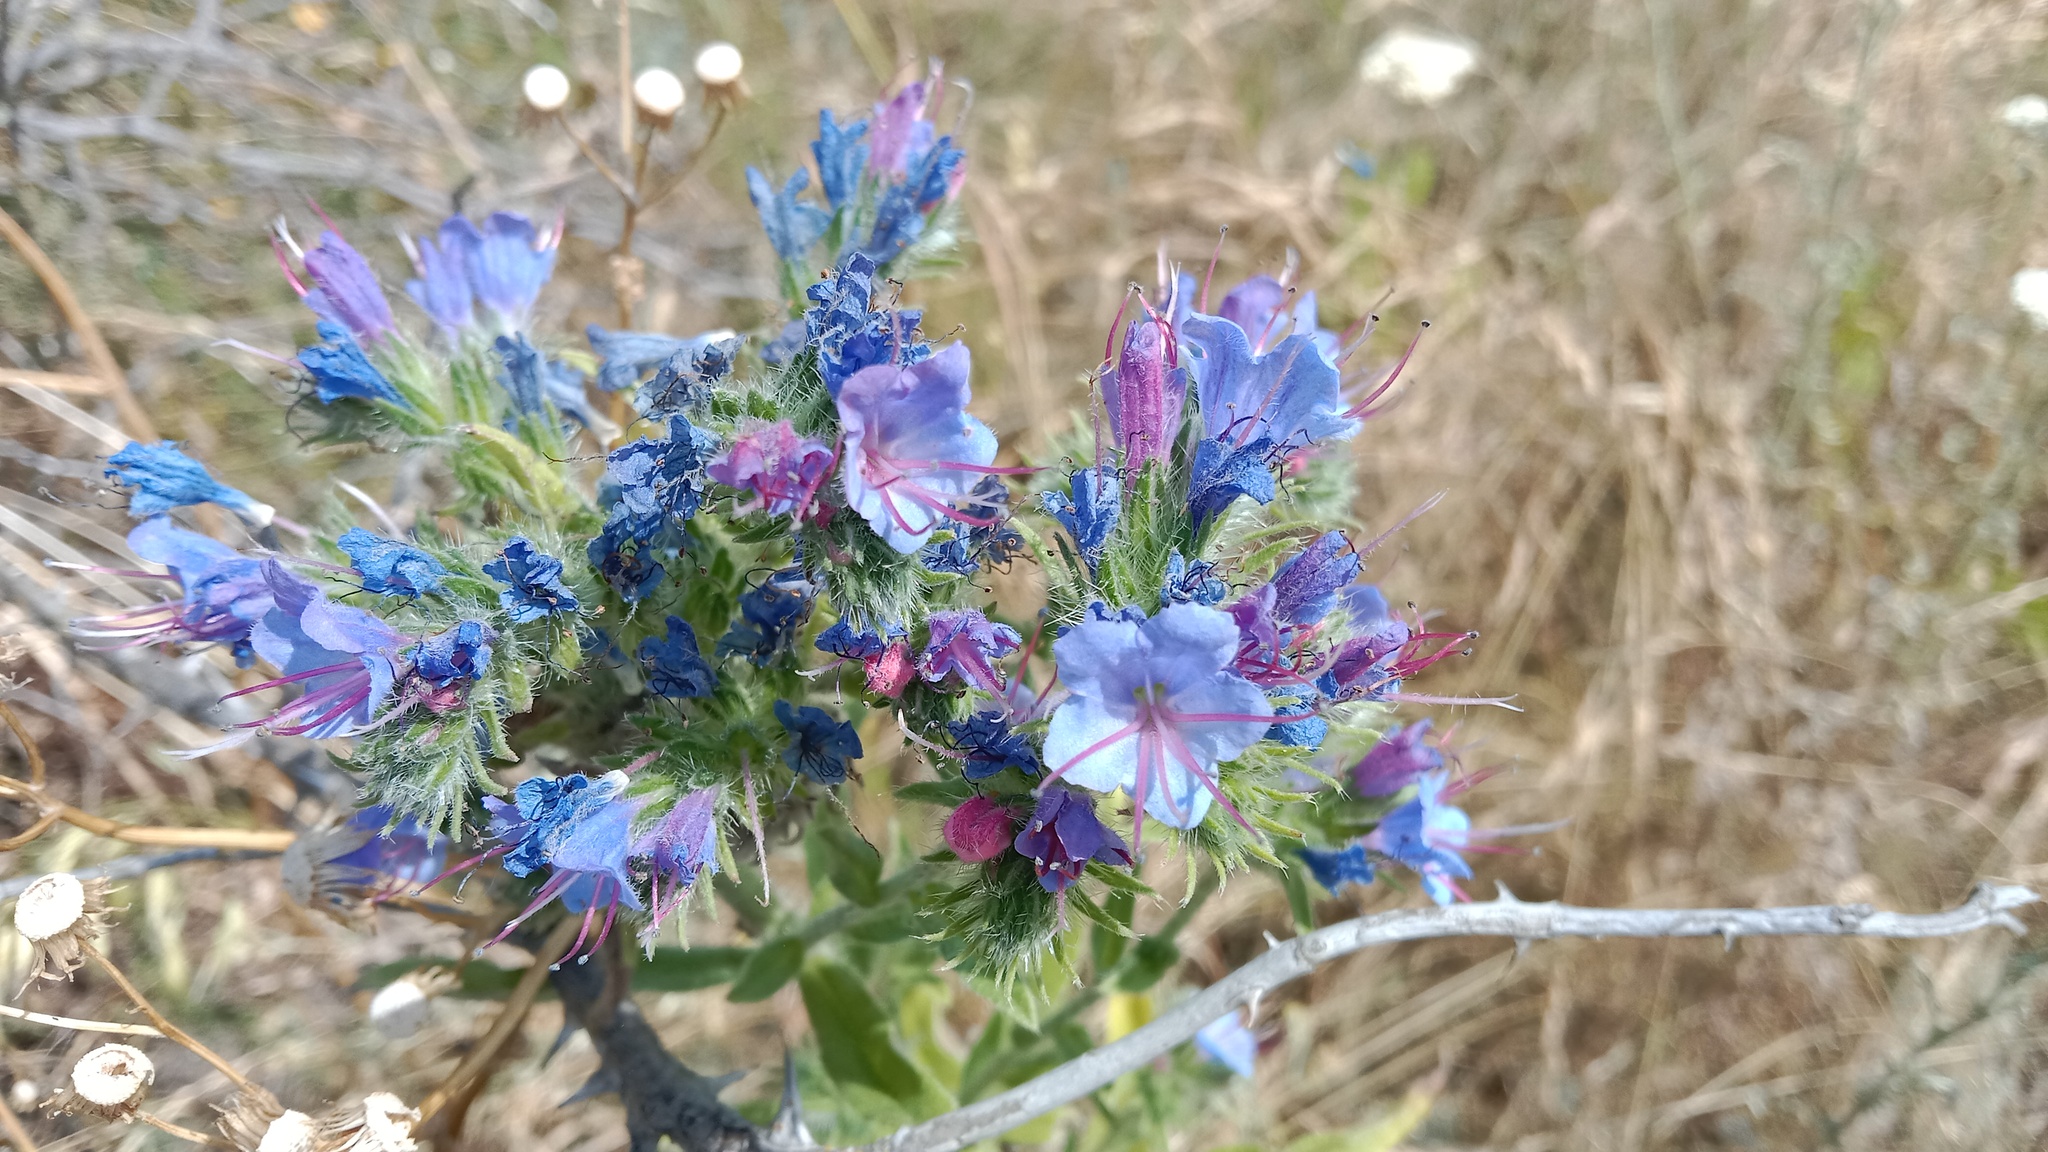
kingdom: Plantae
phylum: Tracheophyta
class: Magnoliopsida
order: Boraginales
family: Boraginaceae
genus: Echium
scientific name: Echium vulgare
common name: Common viper's bugloss
